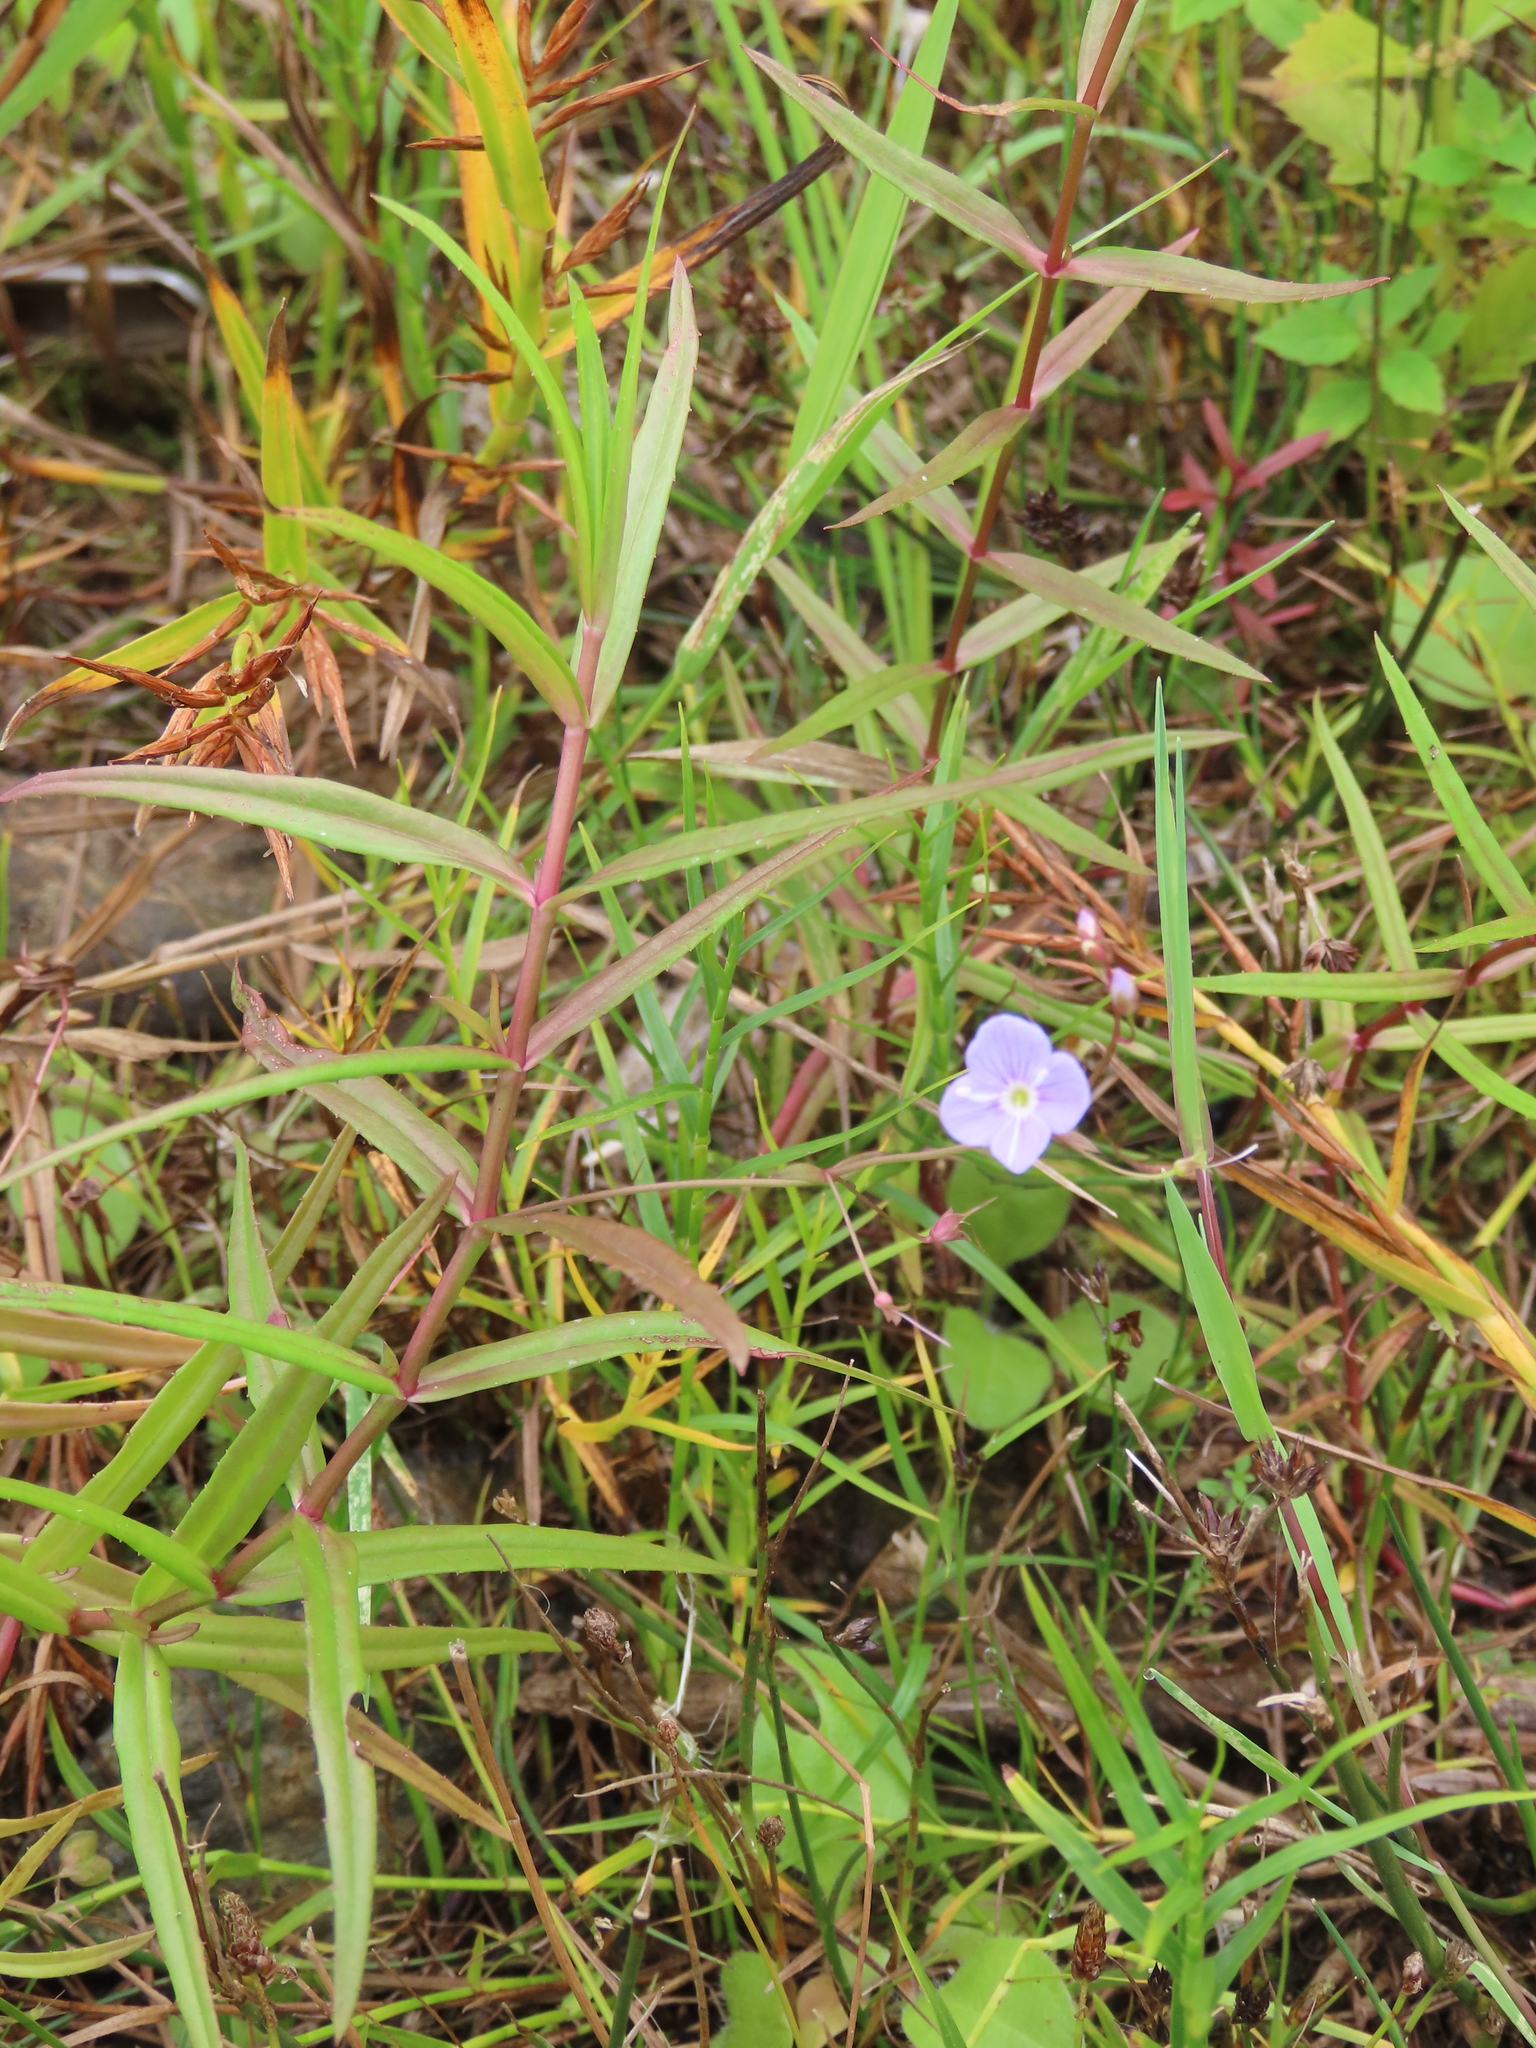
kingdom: Plantae
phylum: Tracheophyta
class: Magnoliopsida
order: Lamiales
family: Plantaginaceae
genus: Veronica
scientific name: Veronica scutellata
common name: Marsh speedwell
